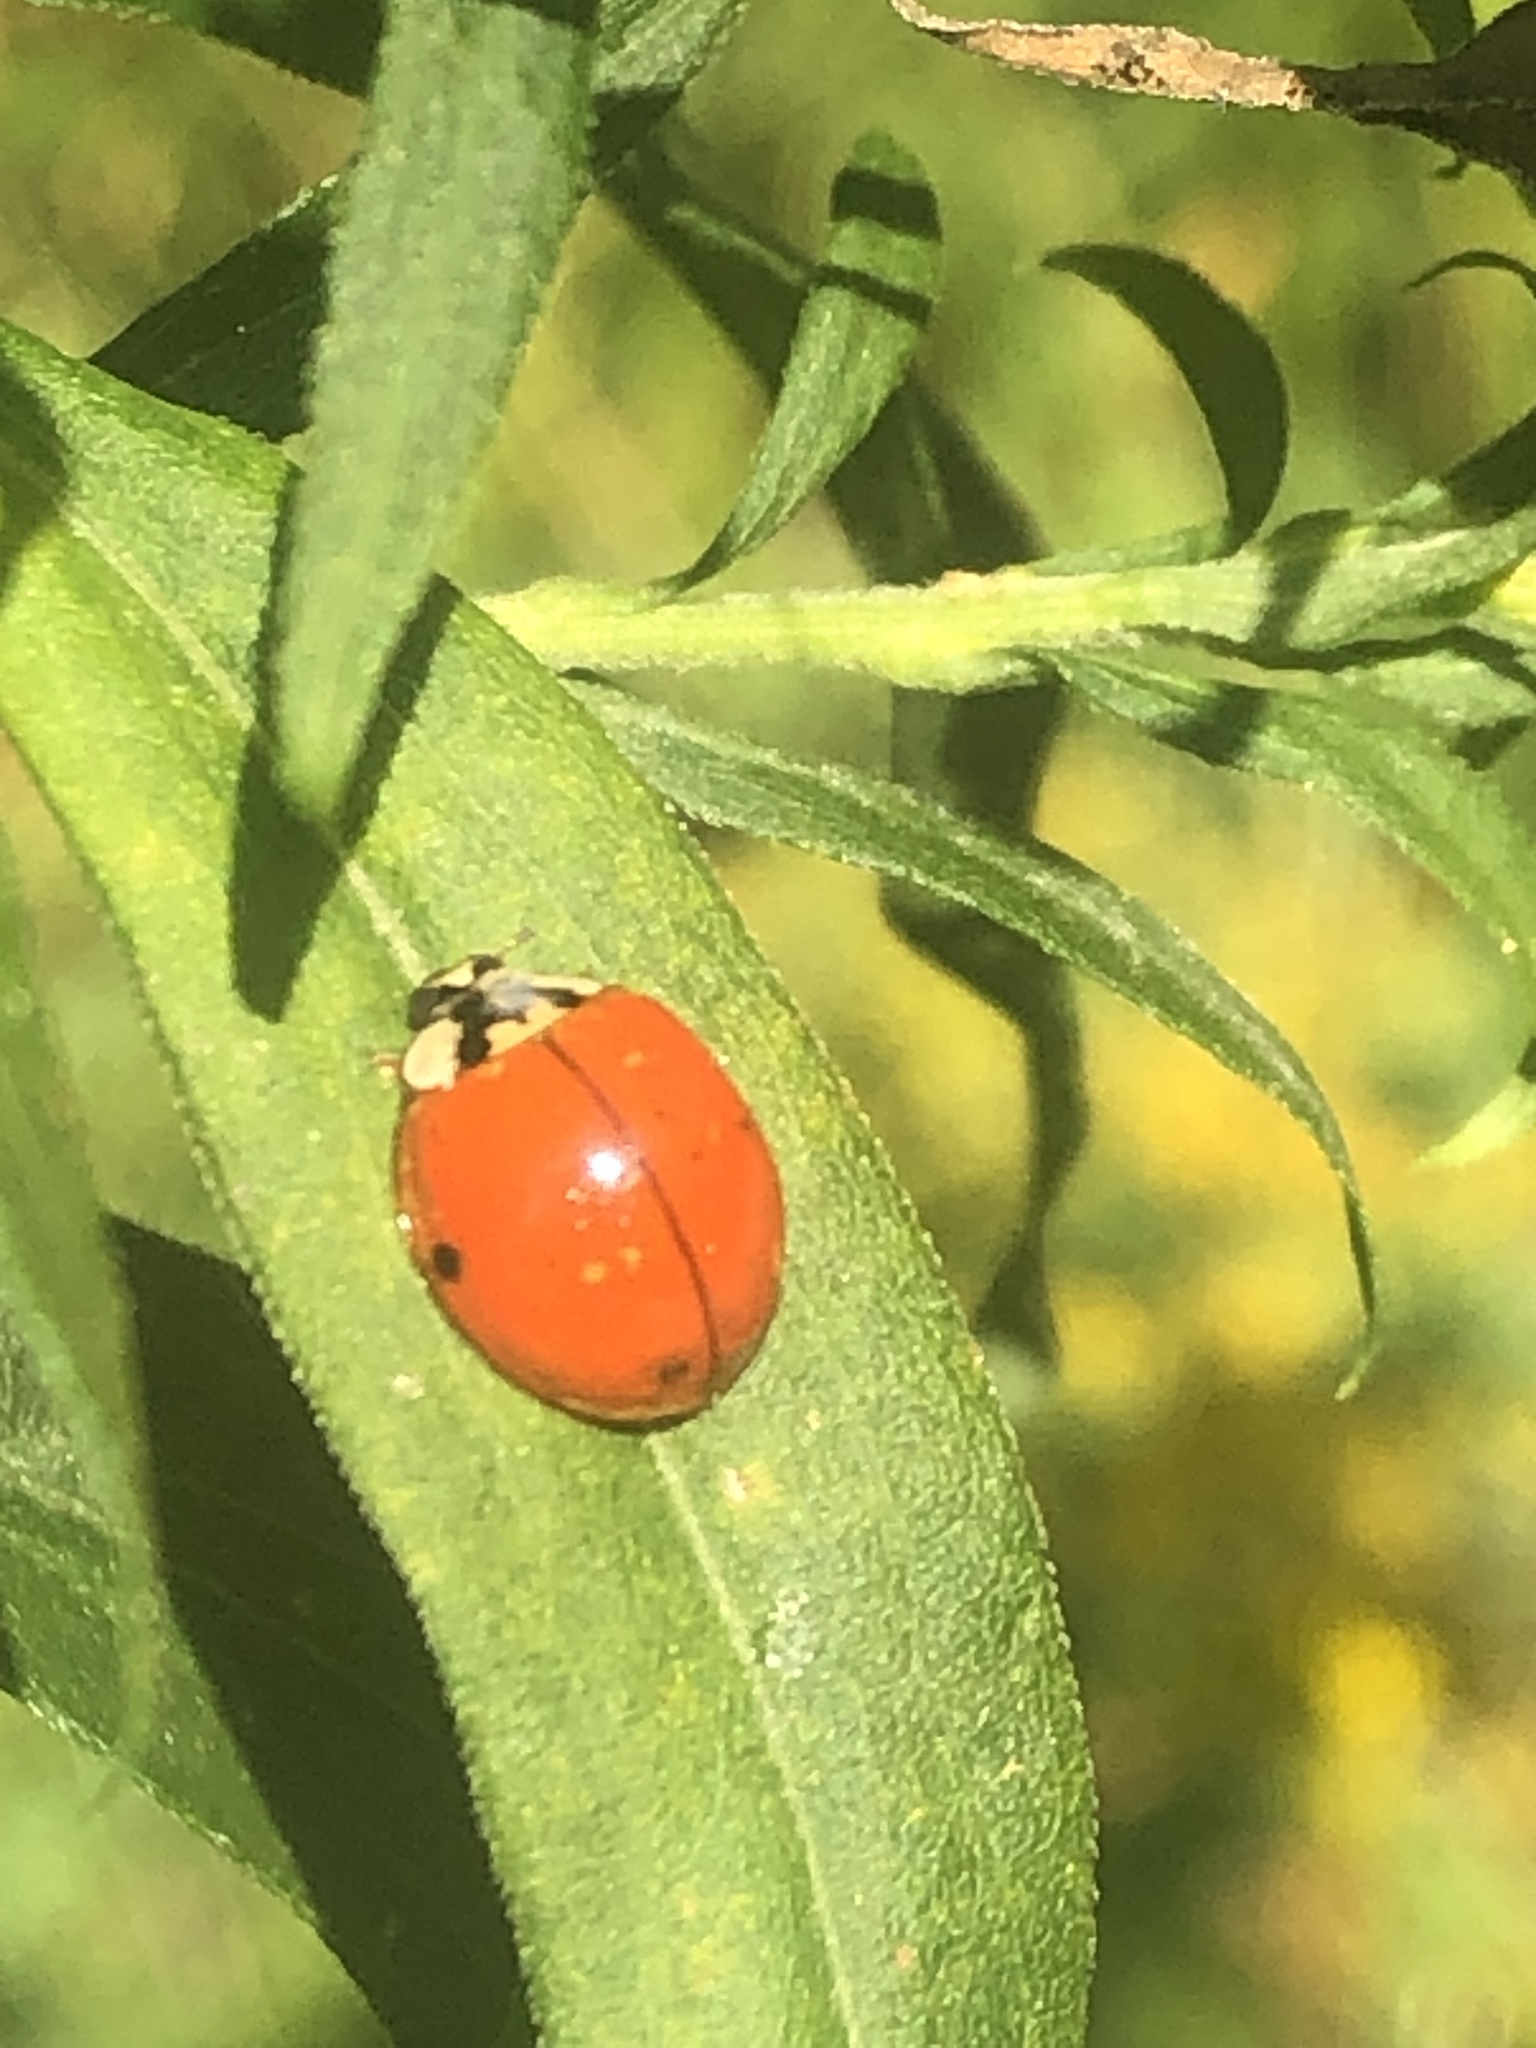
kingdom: Animalia
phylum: Arthropoda
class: Insecta
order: Coleoptera
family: Coccinellidae
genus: Harmonia
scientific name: Harmonia axyridis
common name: Harlequin ladybird
